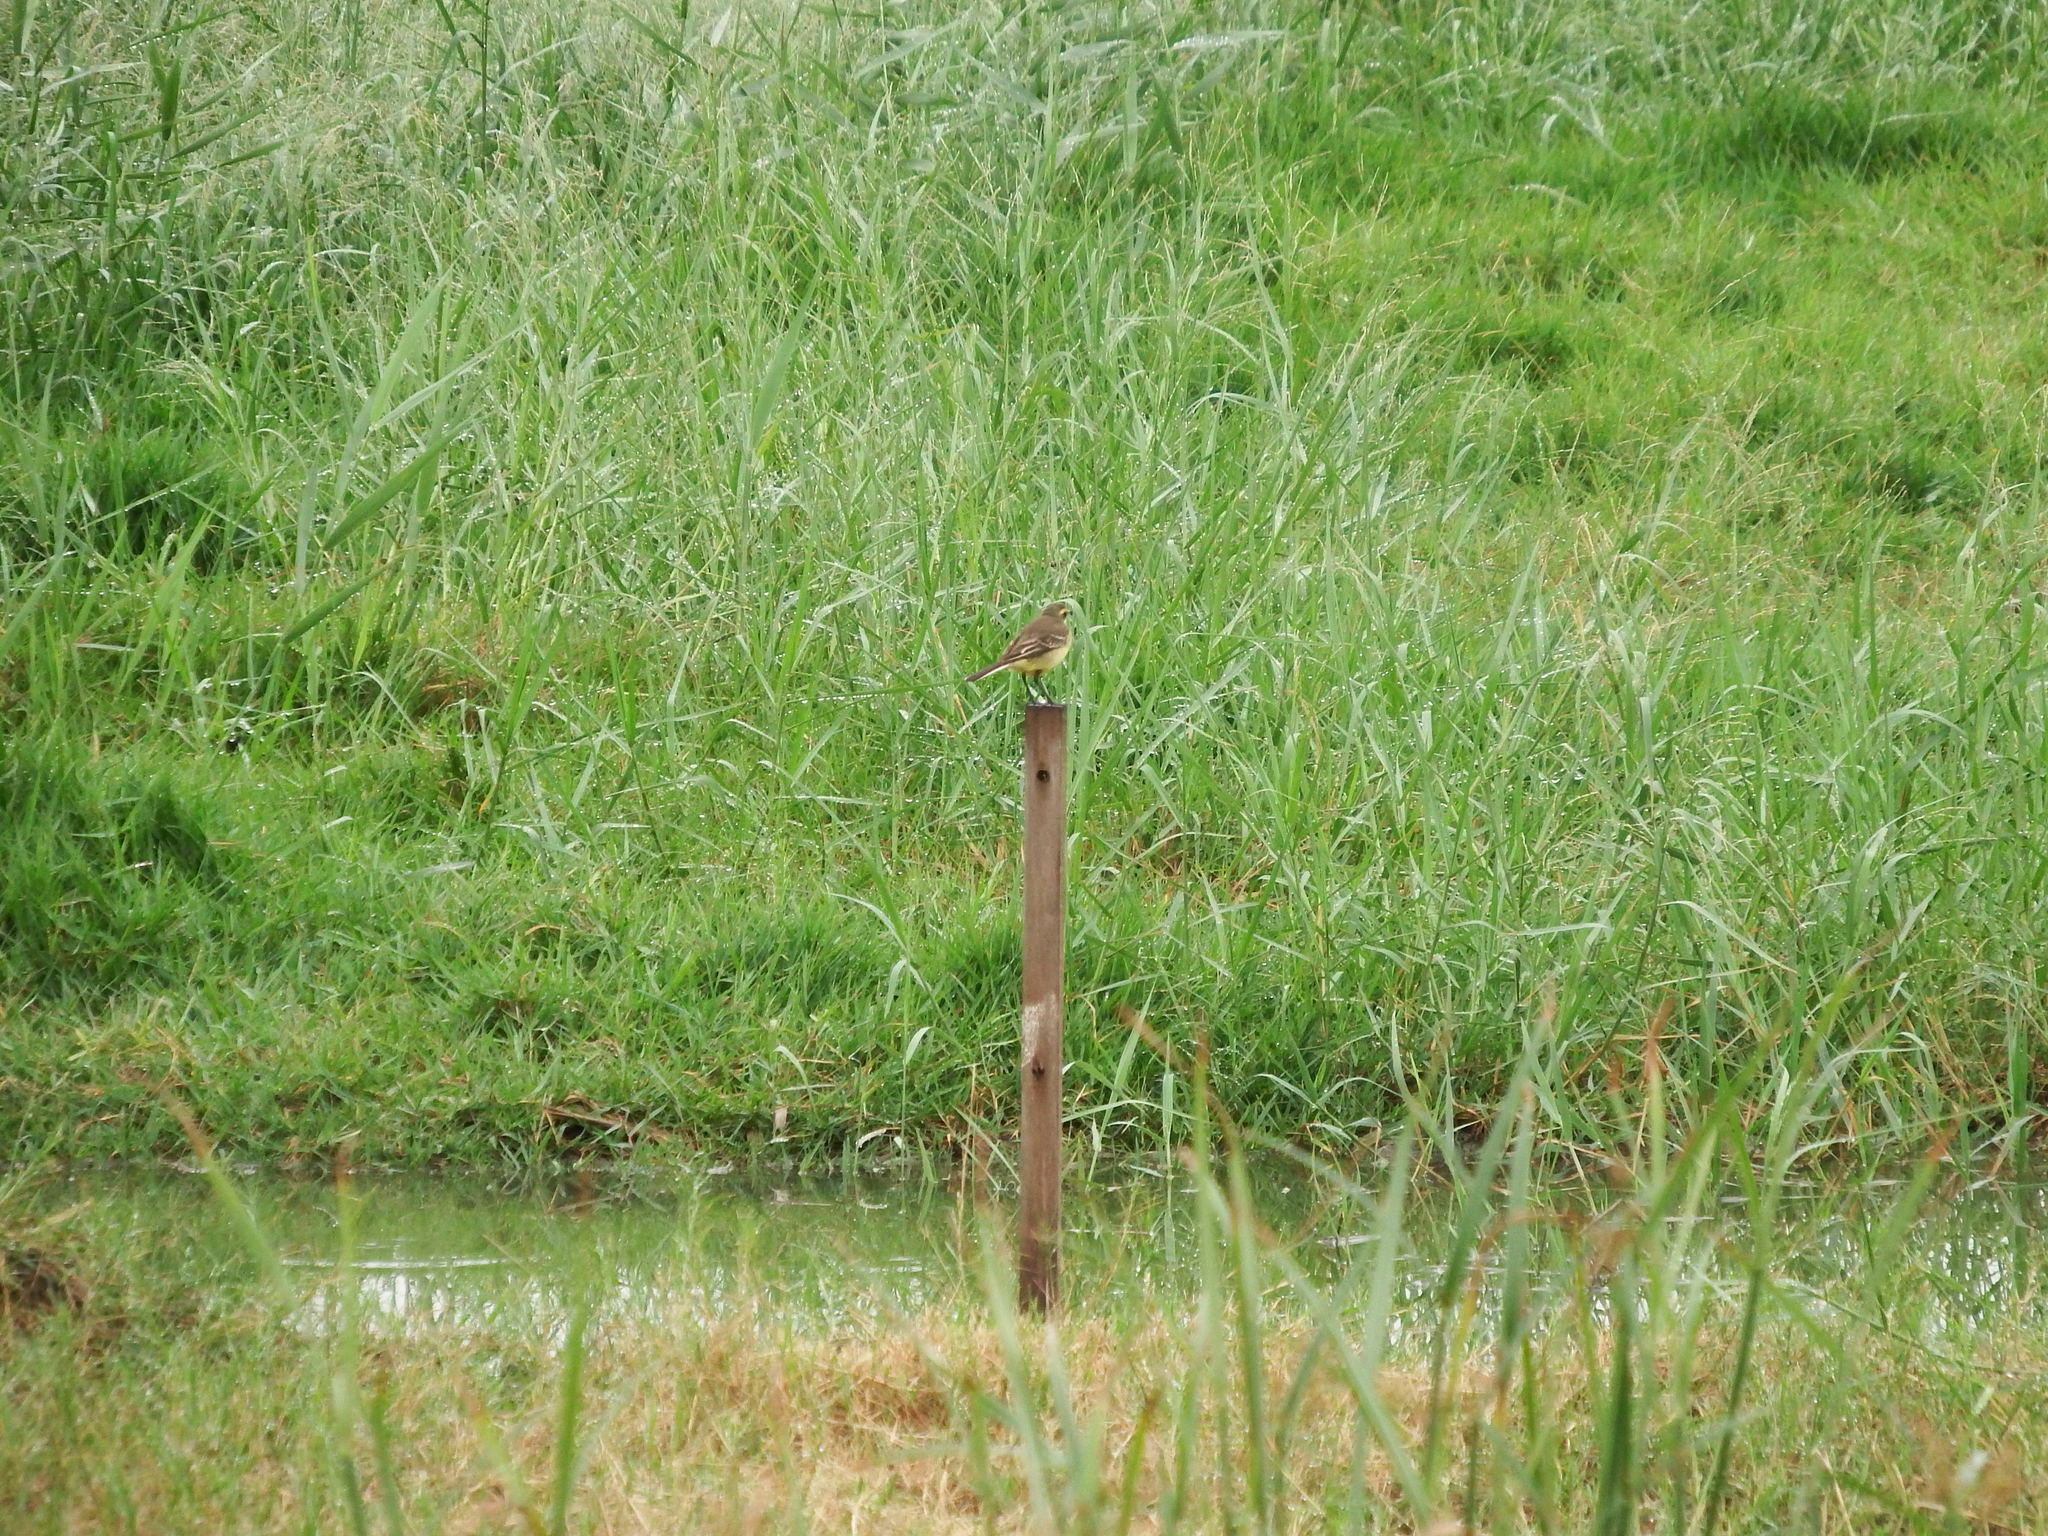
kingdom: Animalia
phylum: Chordata
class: Aves
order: Passeriformes
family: Motacillidae
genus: Motacilla
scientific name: Motacilla tschutschensis
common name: Eastern yellow wagtail
